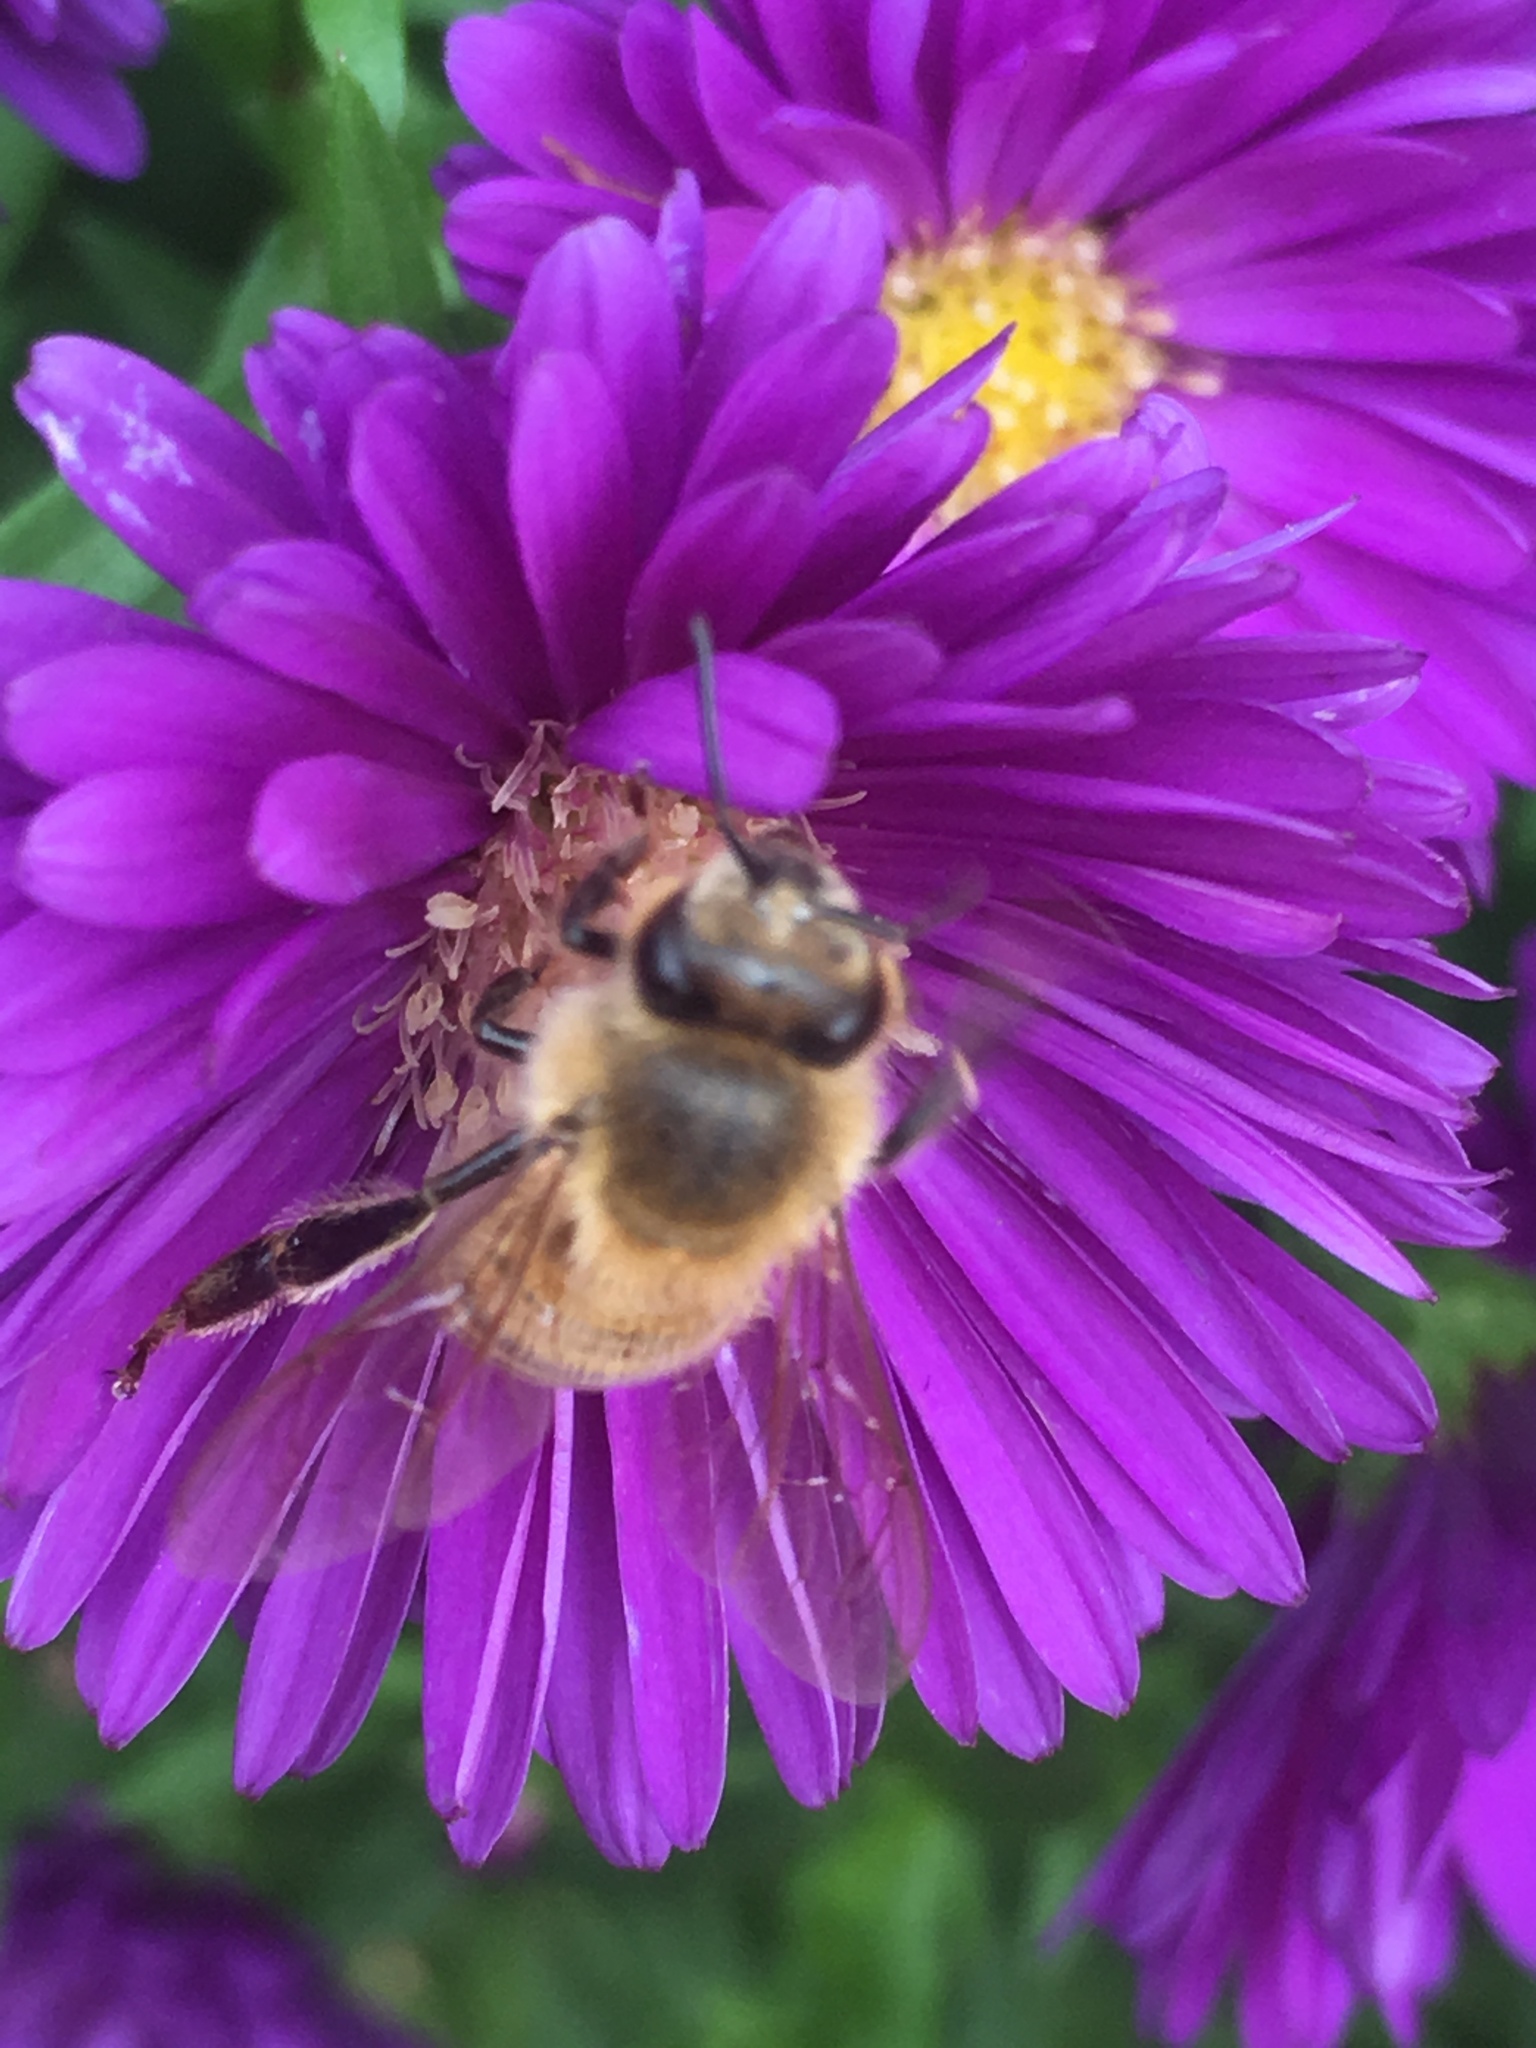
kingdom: Animalia
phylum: Arthropoda
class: Insecta
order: Hymenoptera
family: Apidae
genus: Apis
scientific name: Apis mellifera
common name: Honey bee
